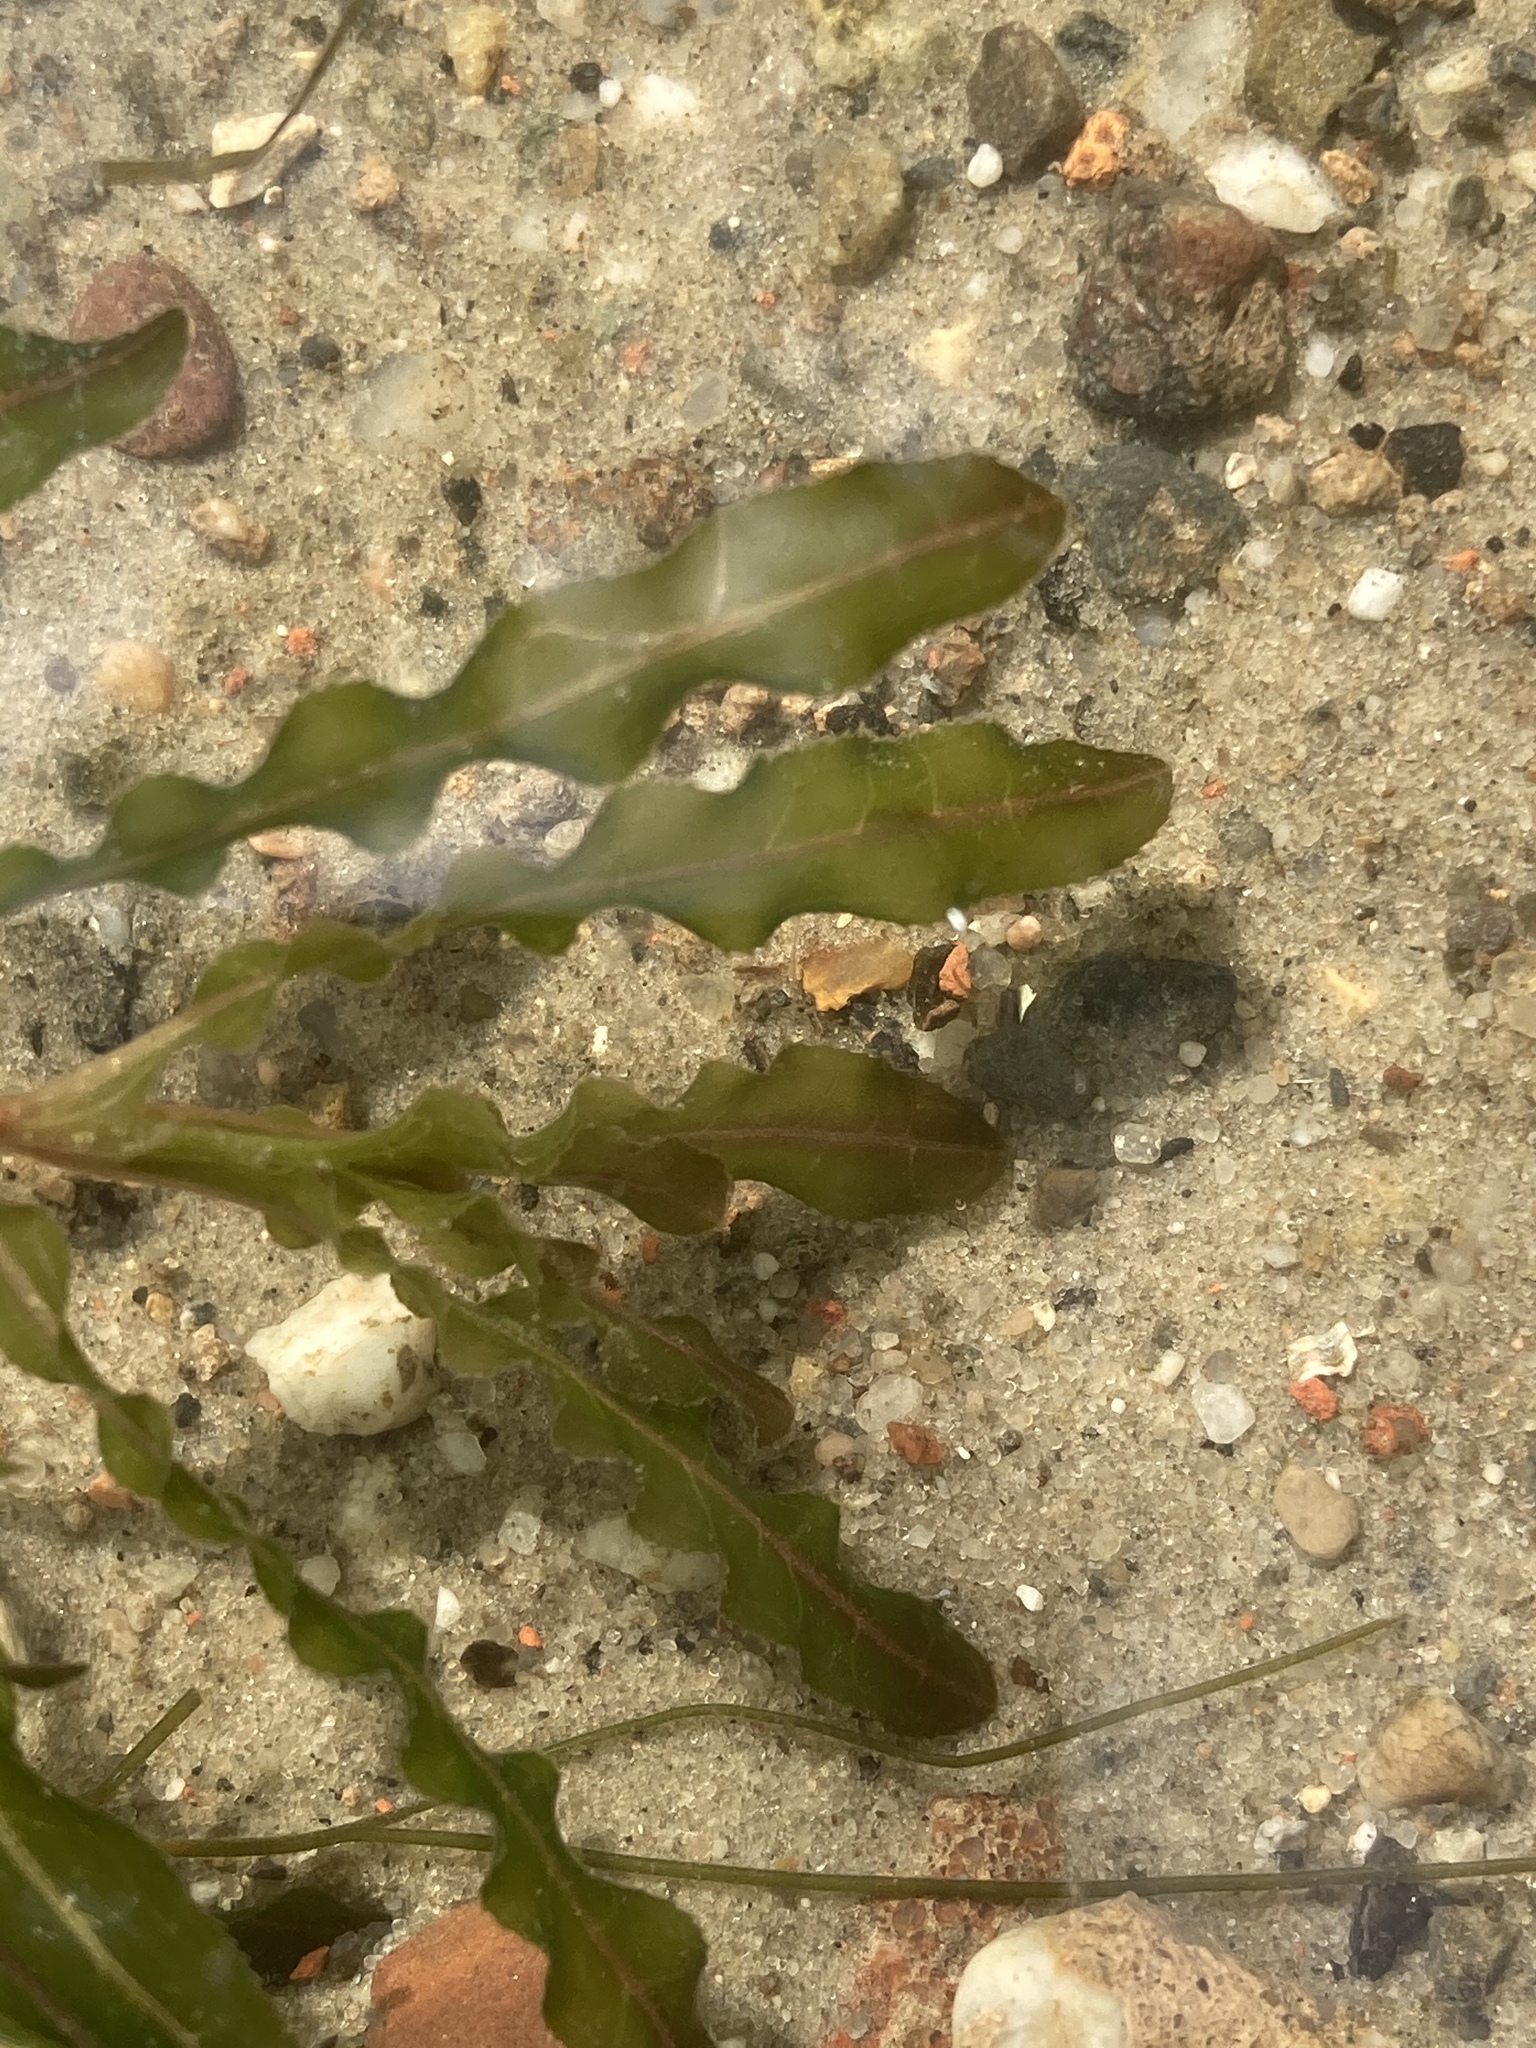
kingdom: Plantae
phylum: Tracheophyta
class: Liliopsida
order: Alismatales
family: Potamogetonaceae
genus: Potamogeton
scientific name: Potamogeton crispus
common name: Curled pondweed
